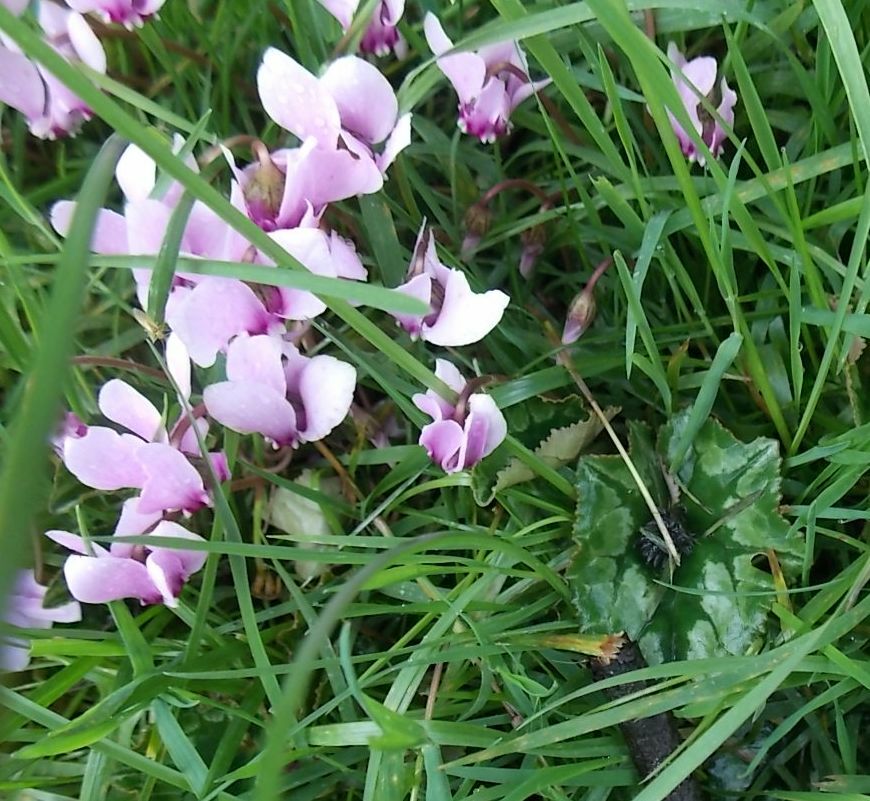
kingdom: Plantae
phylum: Tracheophyta
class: Magnoliopsida
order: Ericales
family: Primulaceae
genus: Cyclamen
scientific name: Cyclamen hederifolium
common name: Sowbread
